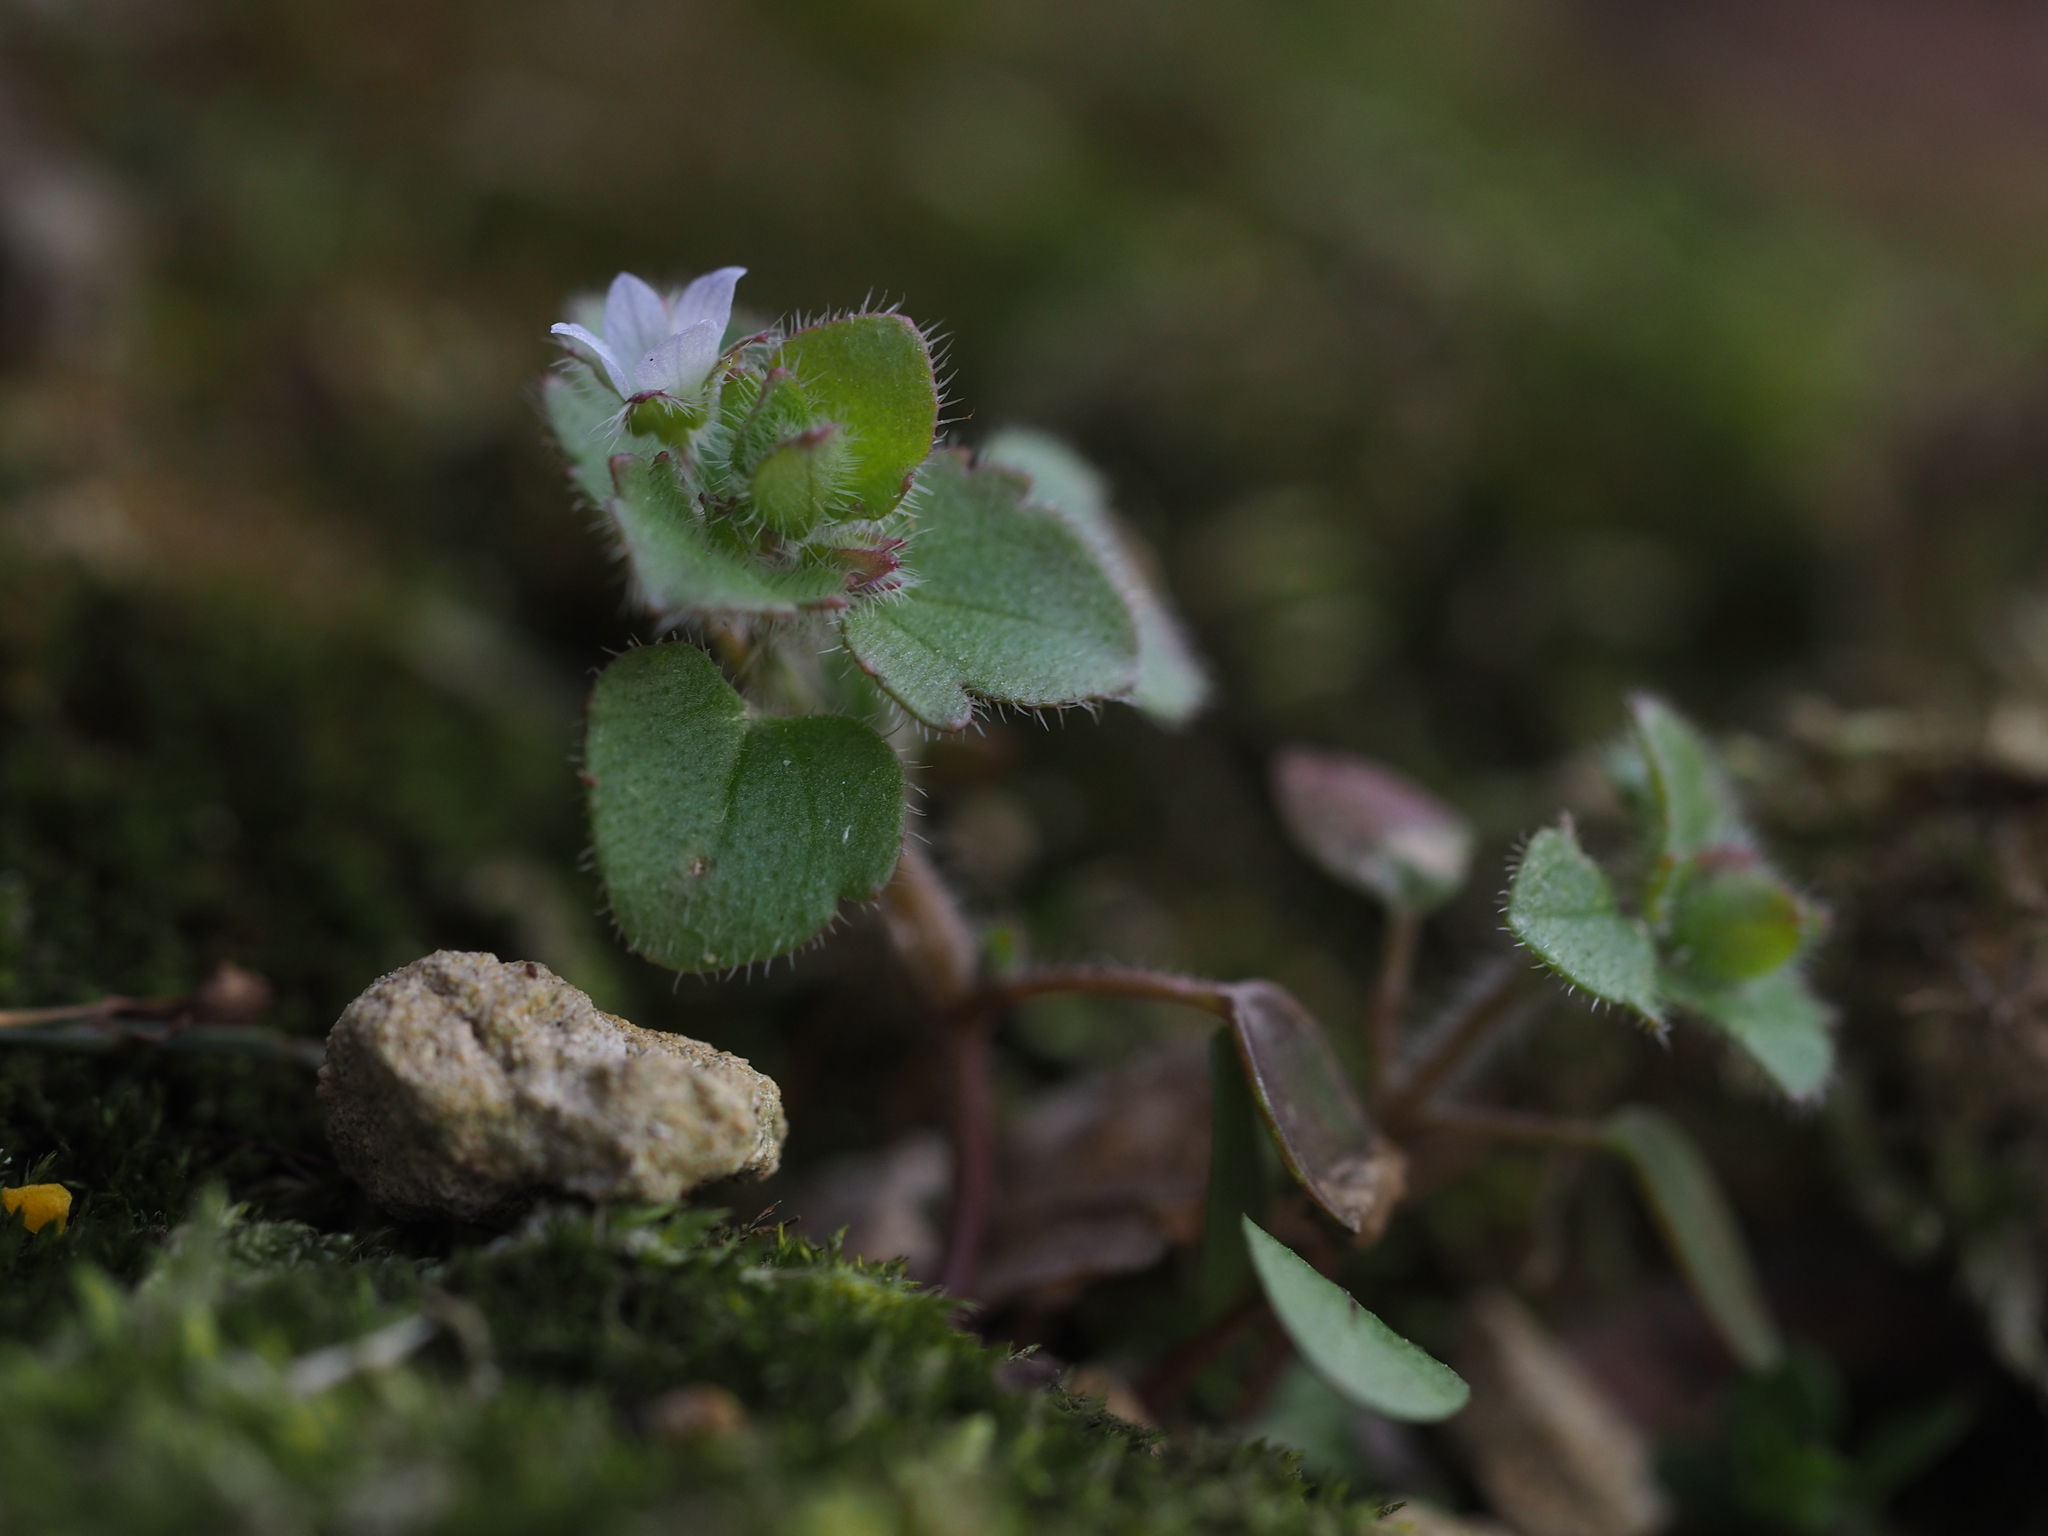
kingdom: Plantae
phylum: Tracheophyta
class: Magnoliopsida
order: Lamiales
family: Plantaginaceae
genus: Veronica
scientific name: Veronica sublobata
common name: False ivy-leaved speedwell
